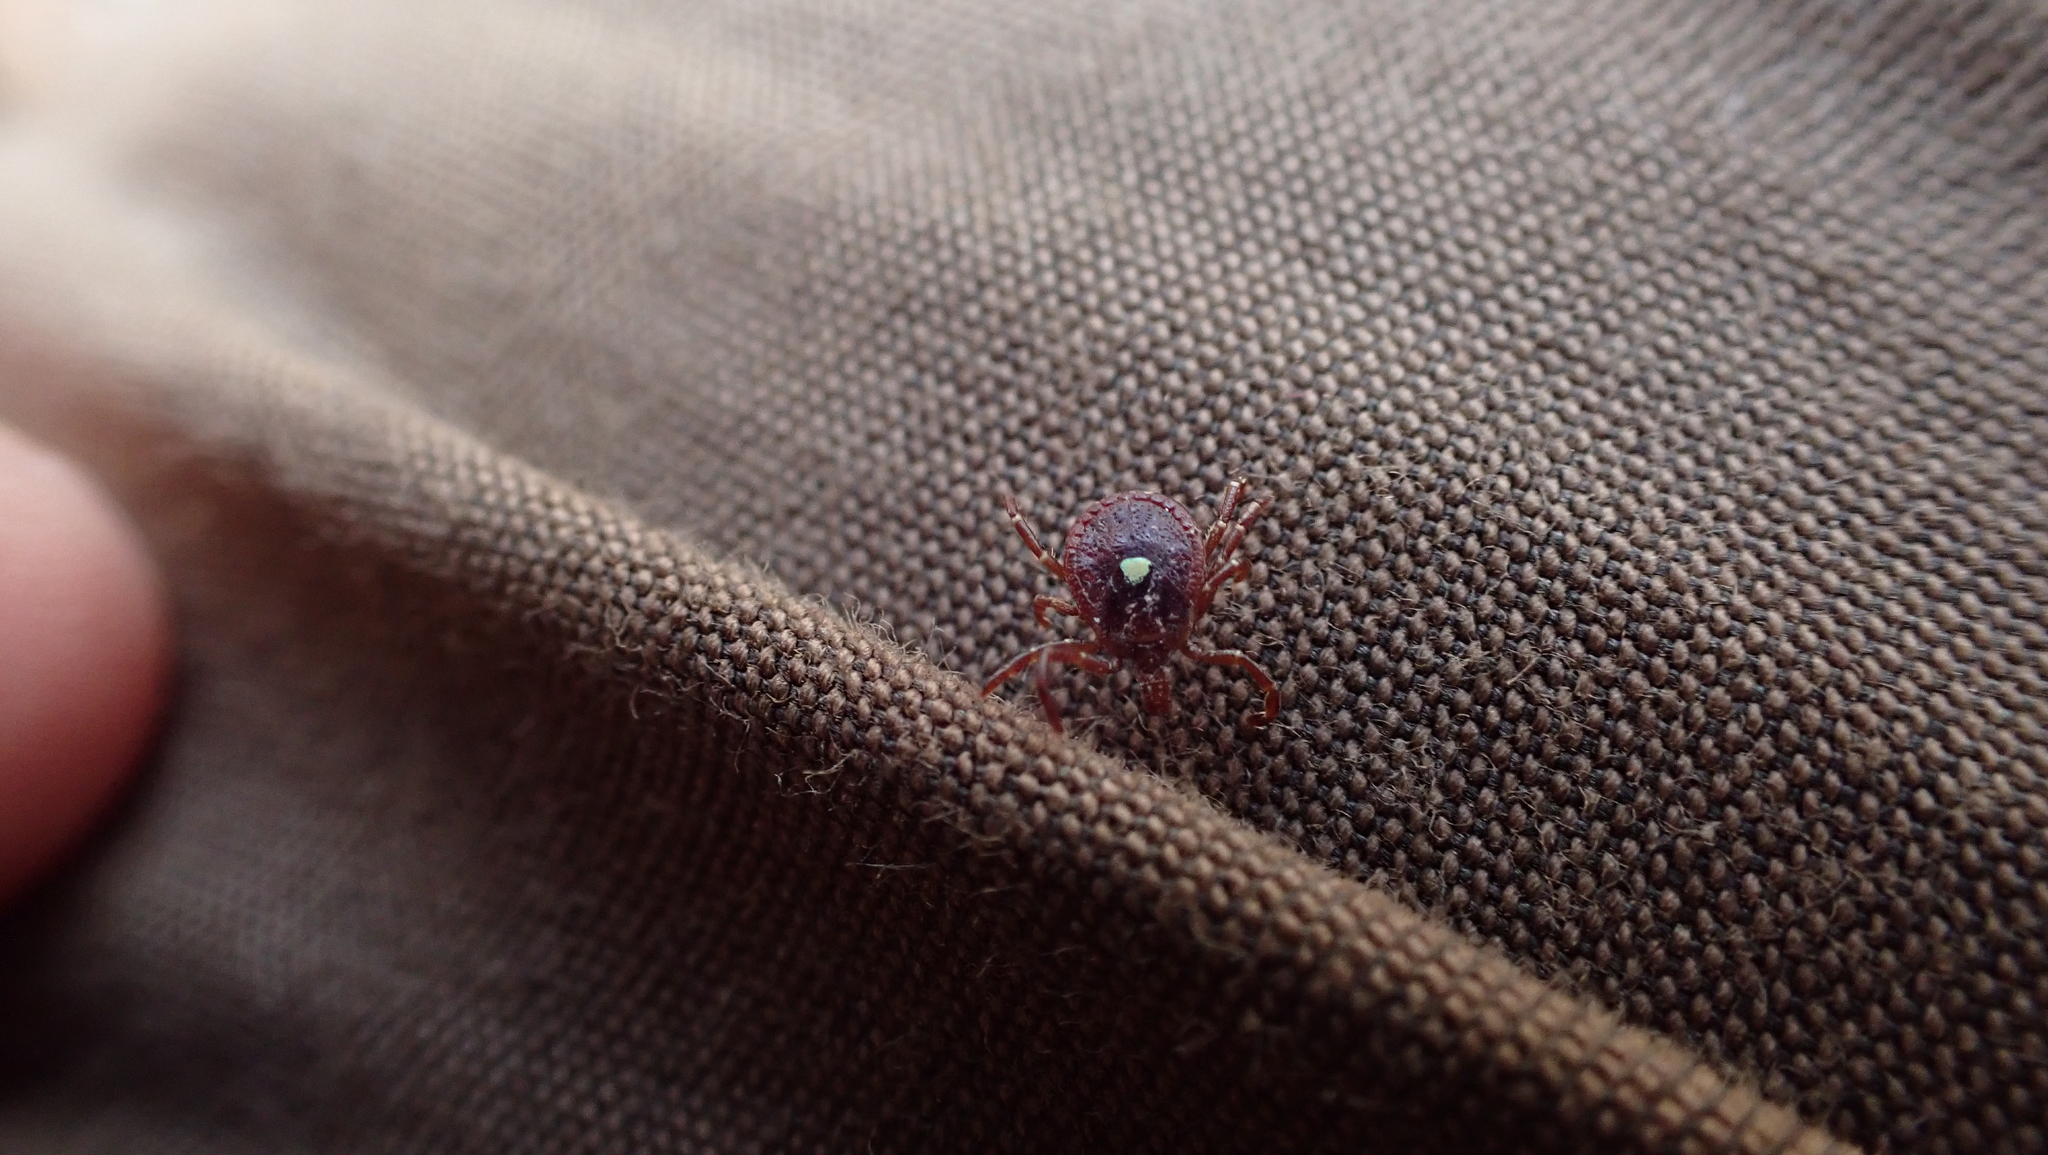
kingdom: Animalia
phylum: Arthropoda
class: Arachnida
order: Ixodida
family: Ixodidae
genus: Amblyomma
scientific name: Amblyomma americanum
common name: Lone star tick
